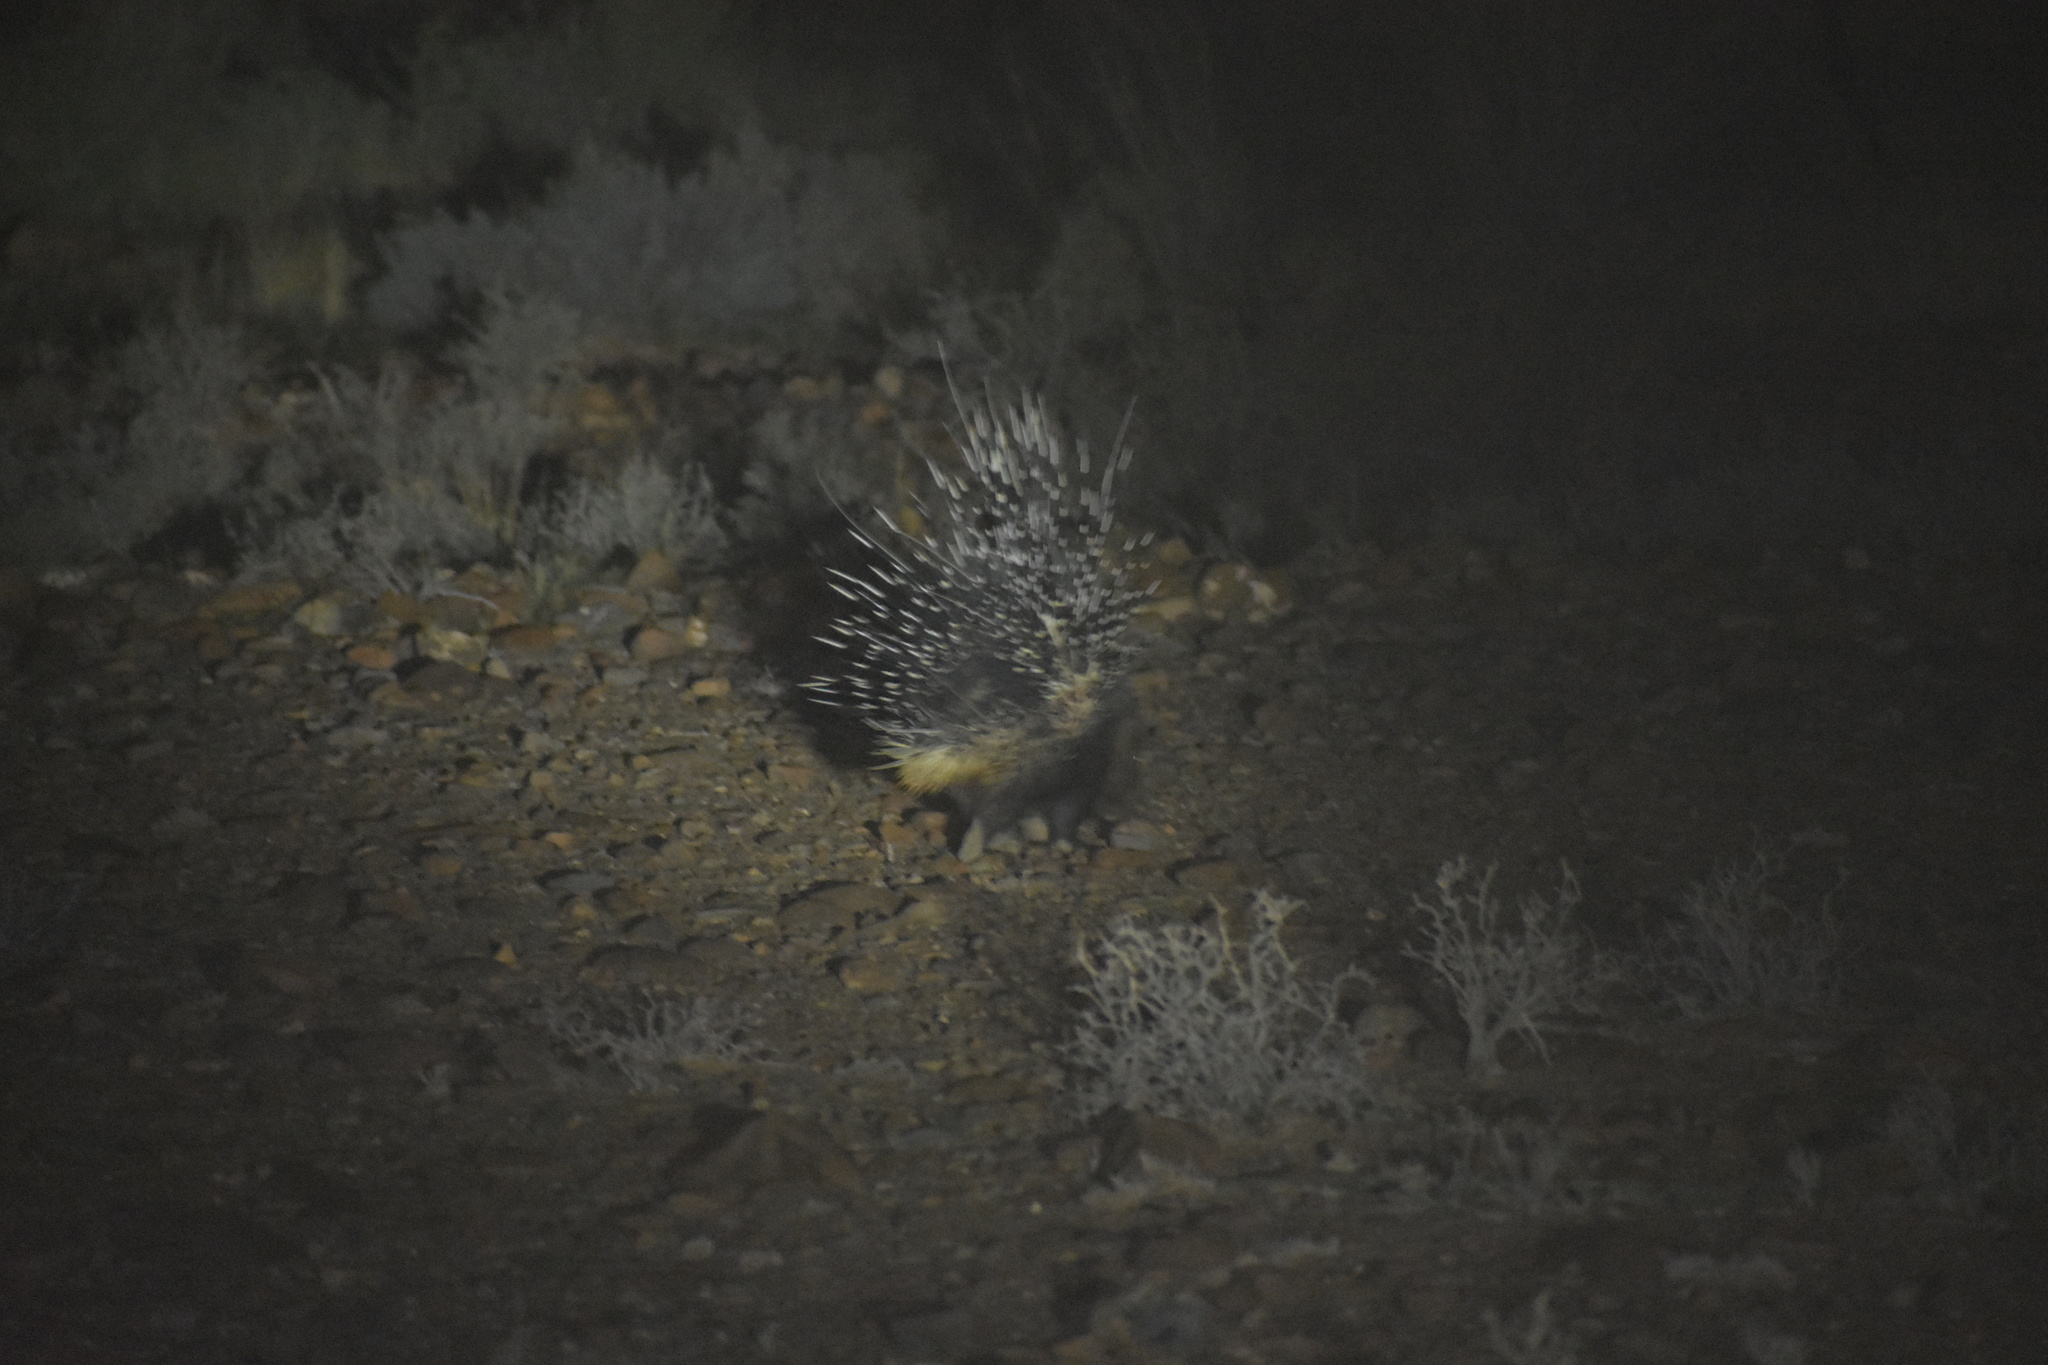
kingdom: Animalia
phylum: Chordata
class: Mammalia
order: Rodentia
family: Hystricidae
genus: Hystrix
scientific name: Hystrix africaeaustralis
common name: Cape porcupine
